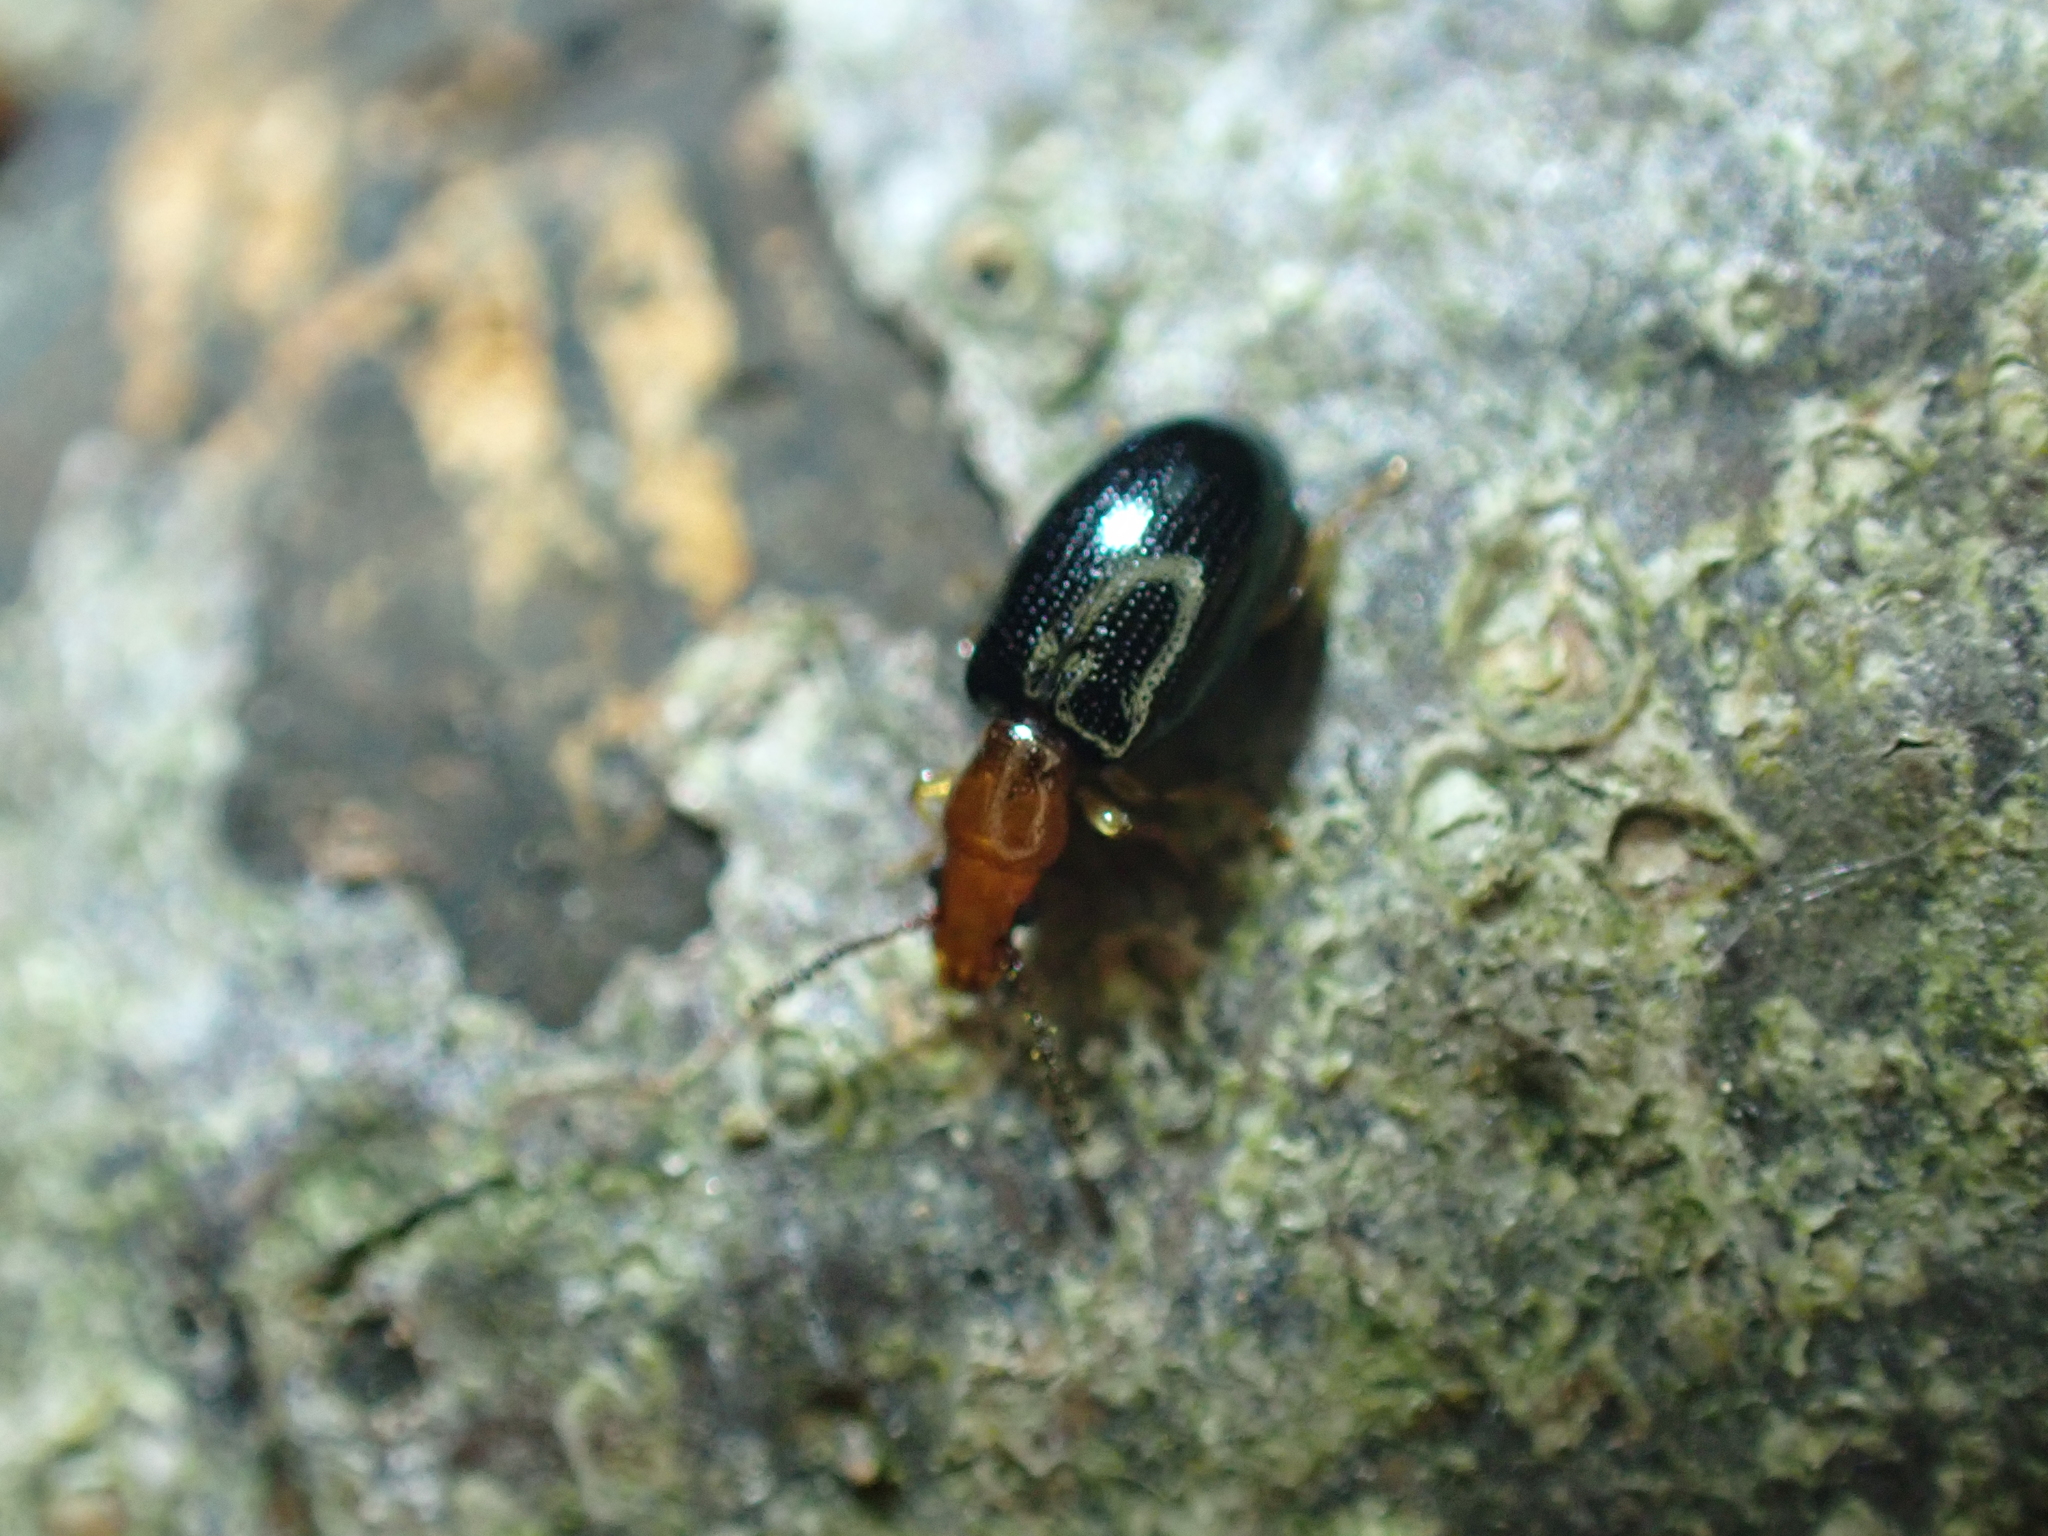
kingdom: Animalia
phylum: Arthropoda
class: Insecta
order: Coleoptera
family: Salpingidae
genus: Vincenzellus
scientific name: Vincenzellus ruficollis
